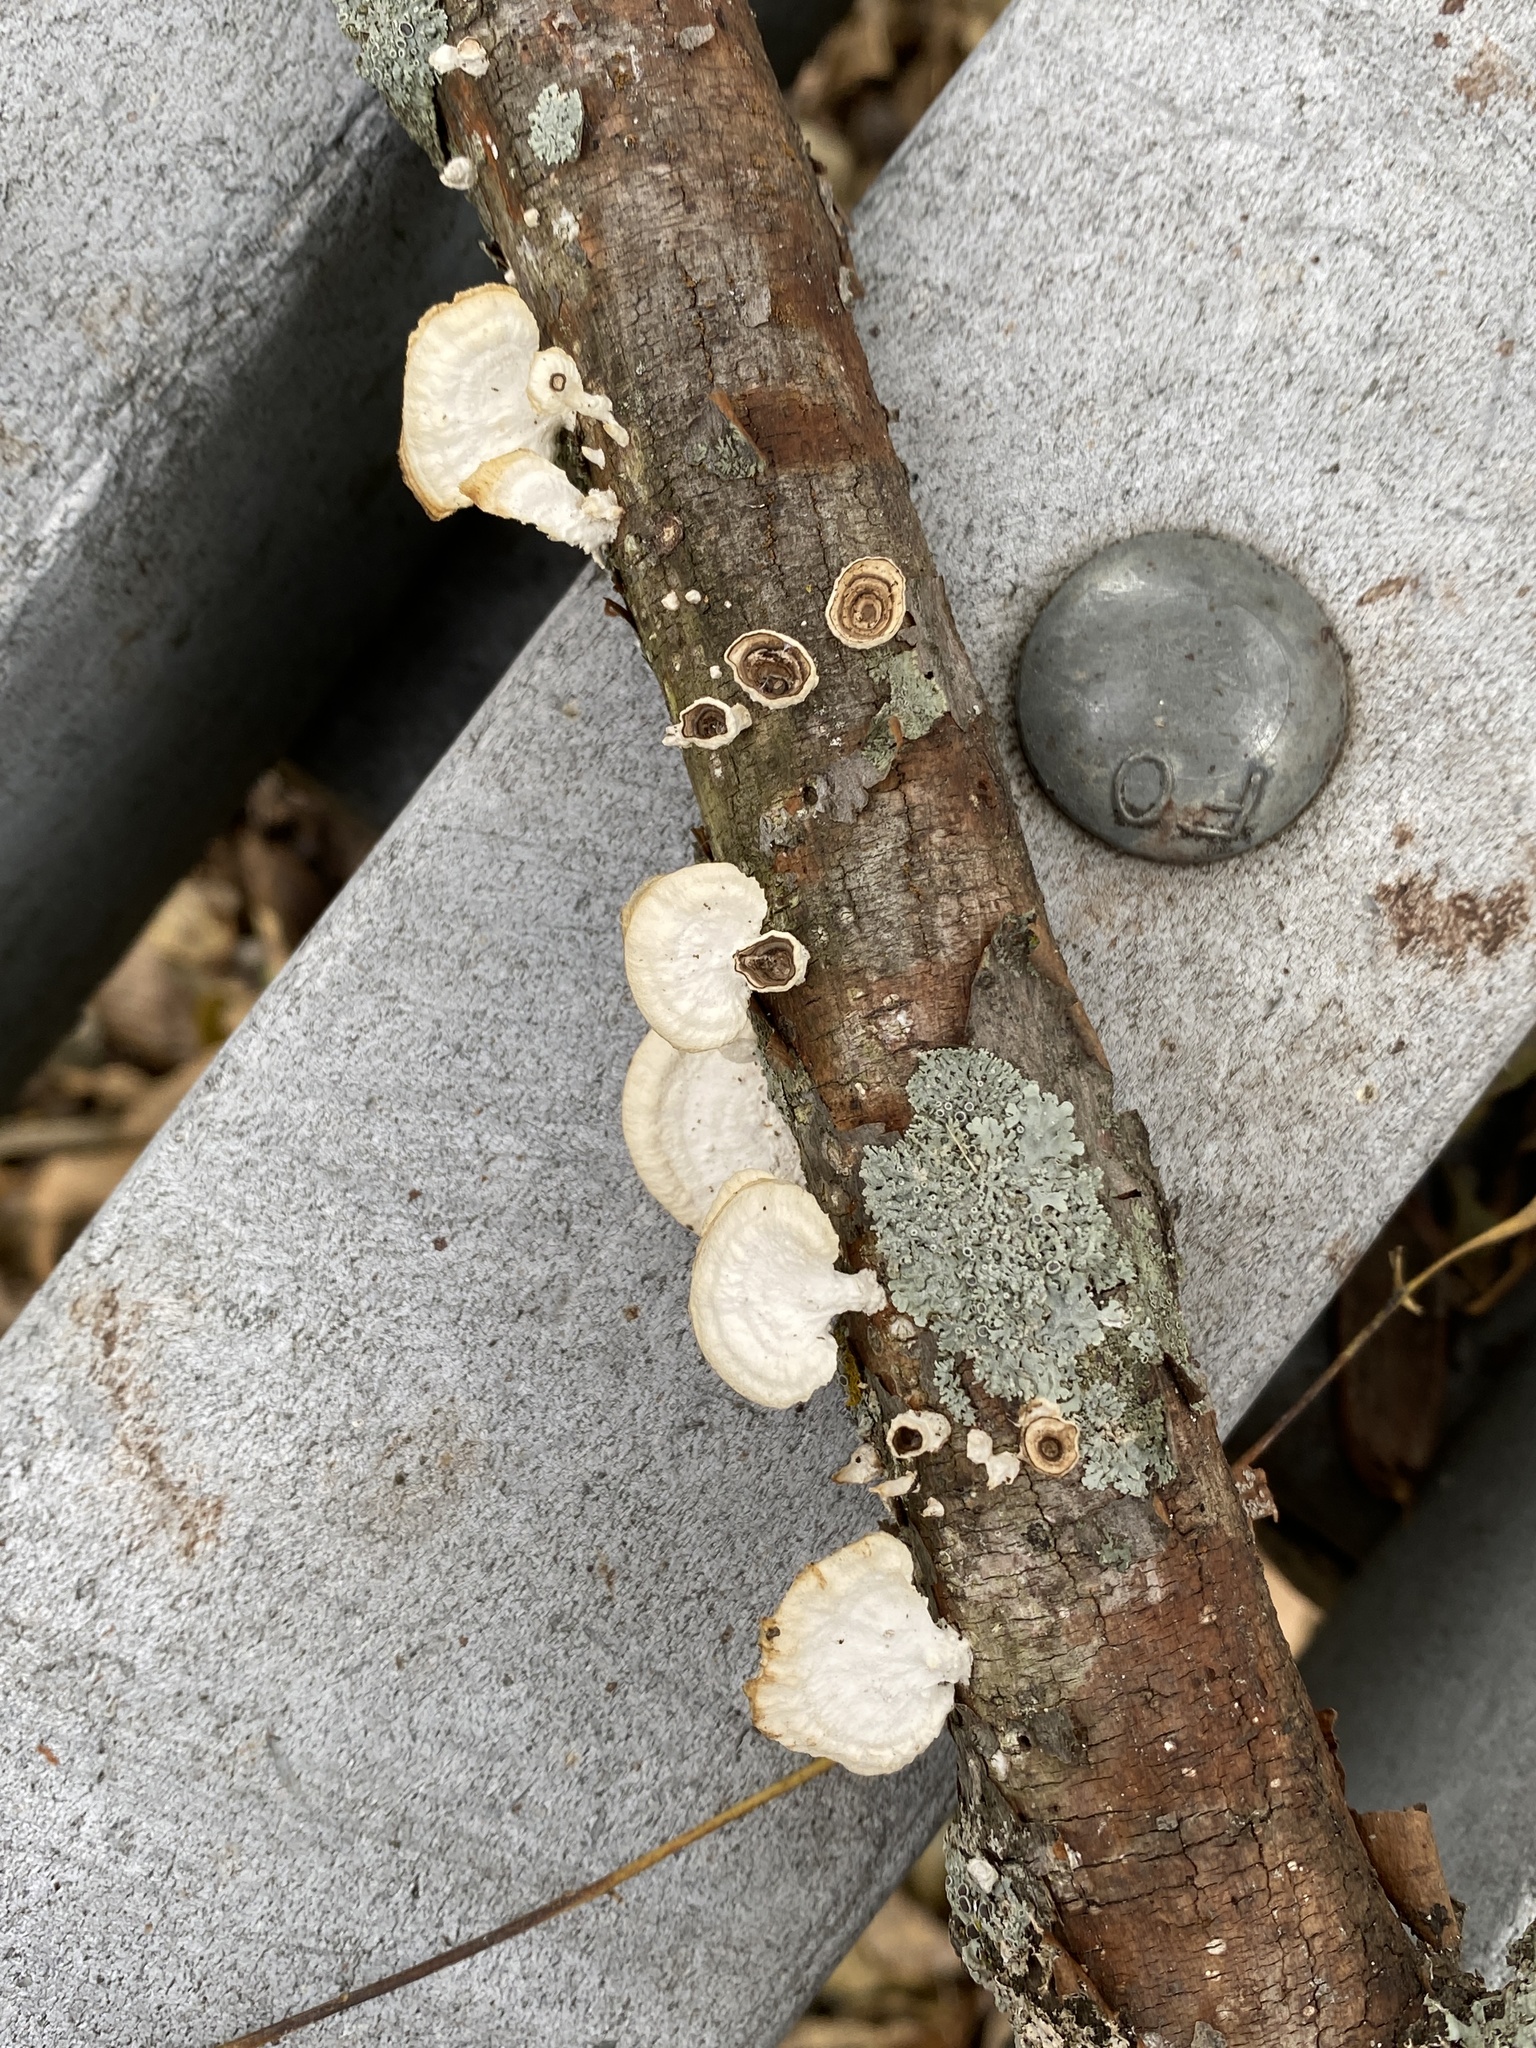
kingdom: Fungi
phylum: Basidiomycota
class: Agaricomycetes
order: Polyporales
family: Polyporaceae
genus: Poronidulus
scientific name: Poronidulus conchifer
